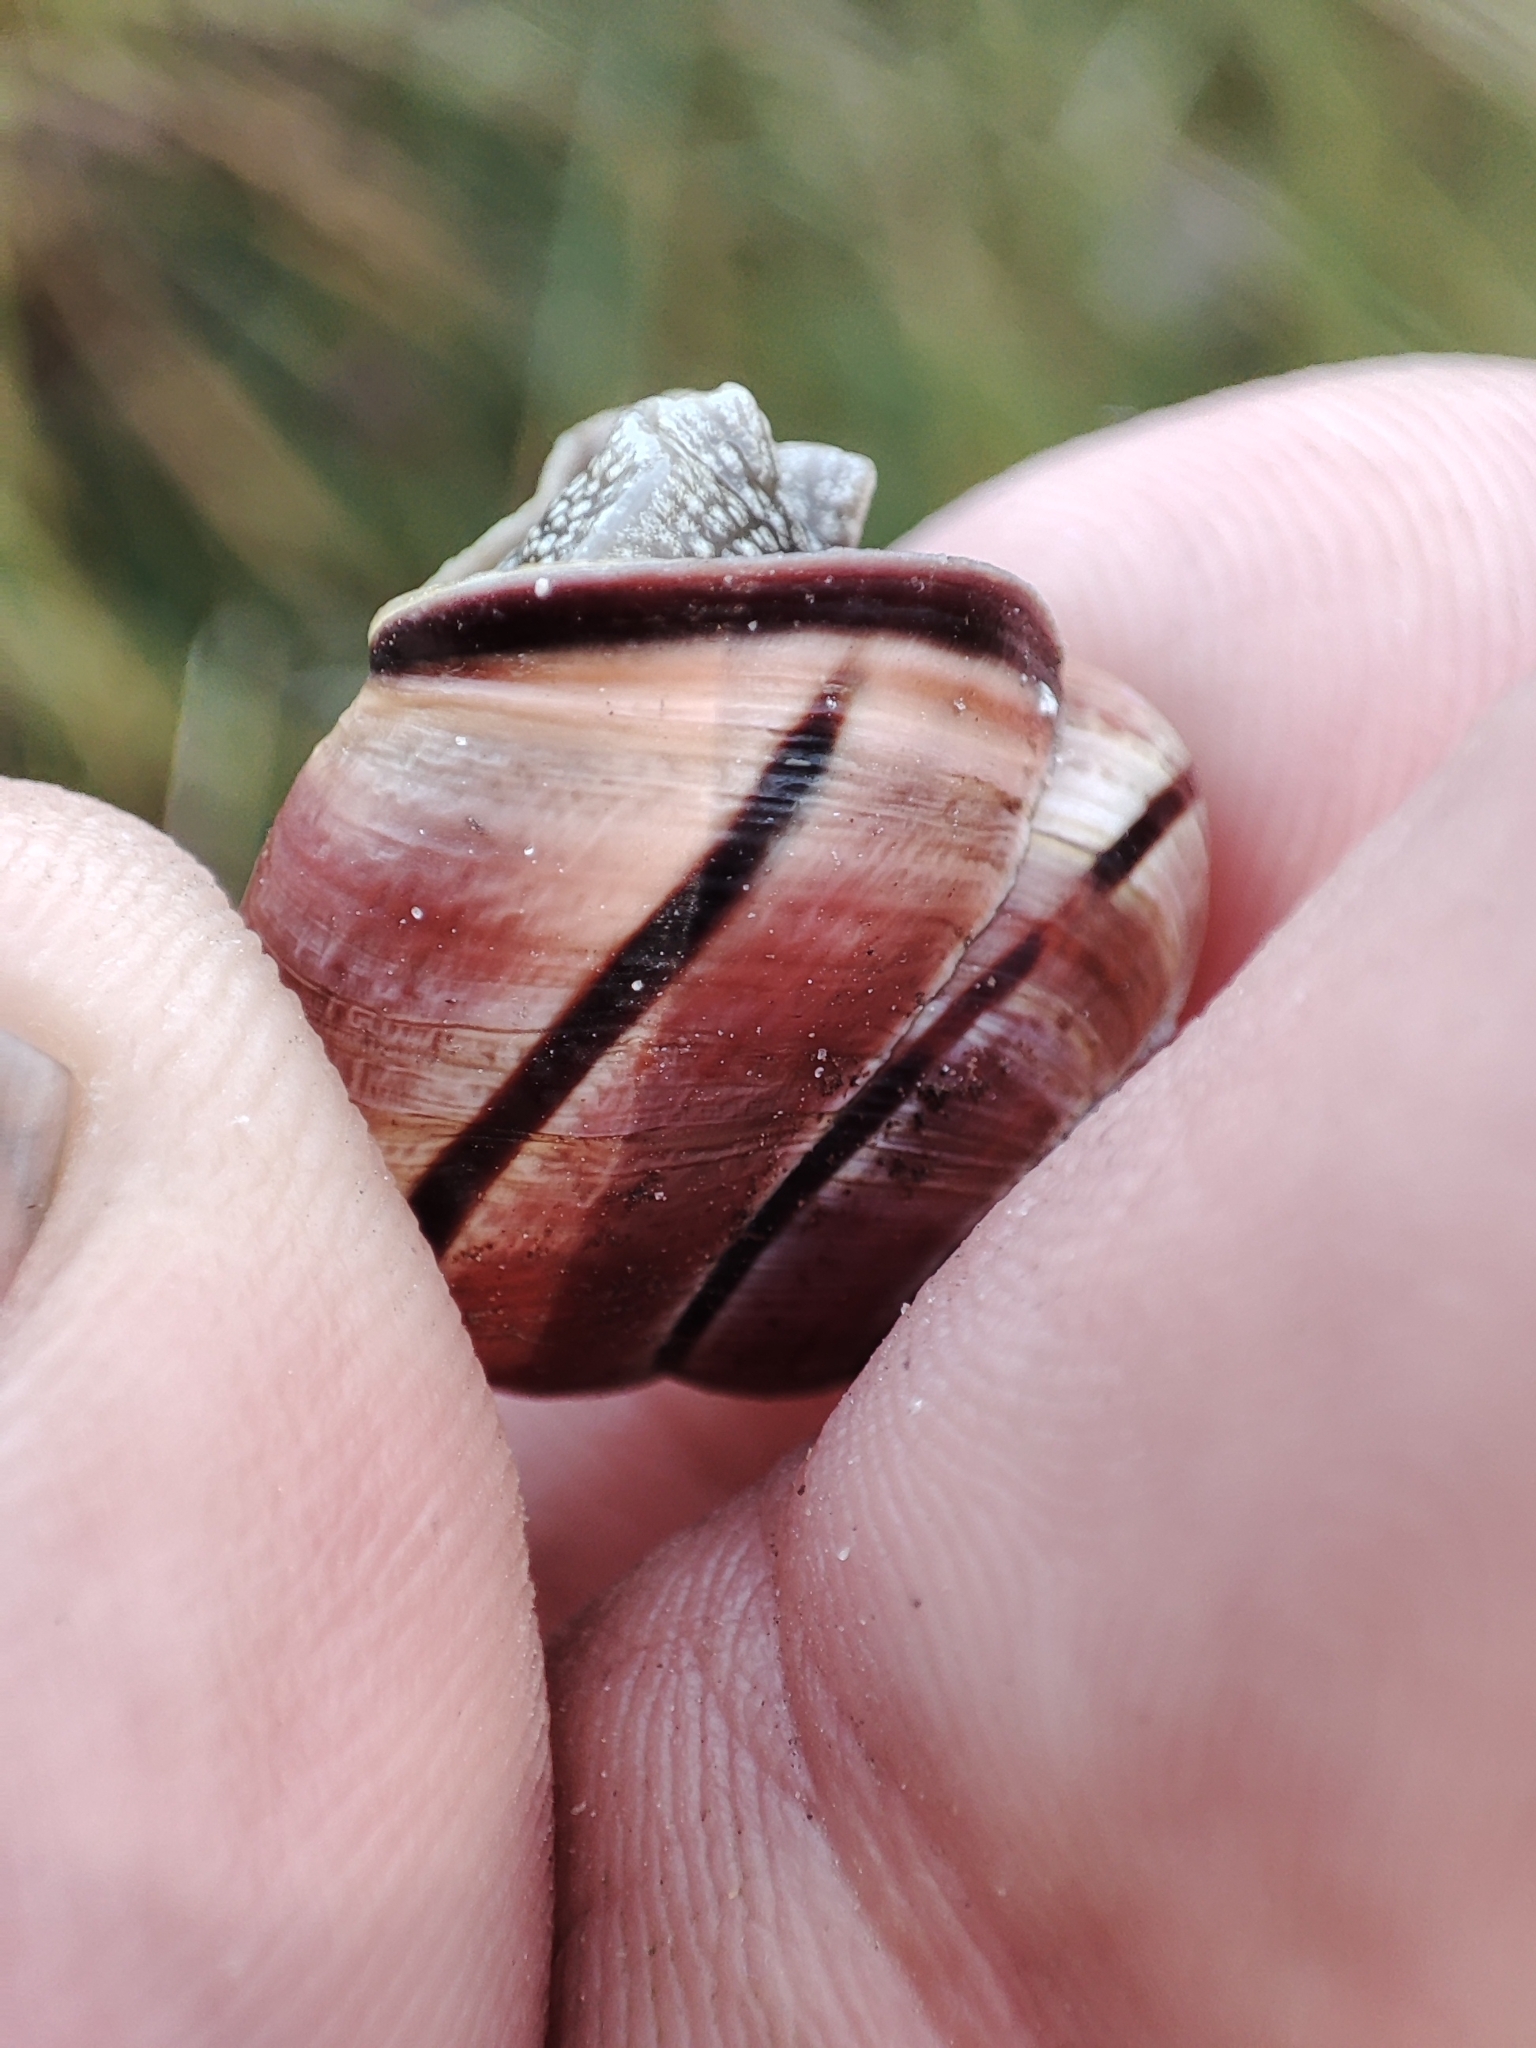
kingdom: Animalia
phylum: Mollusca
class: Gastropoda
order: Stylommatophora
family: Helicidae
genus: Cepaea
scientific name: Cepaea nemoralis
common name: Grovesnail
